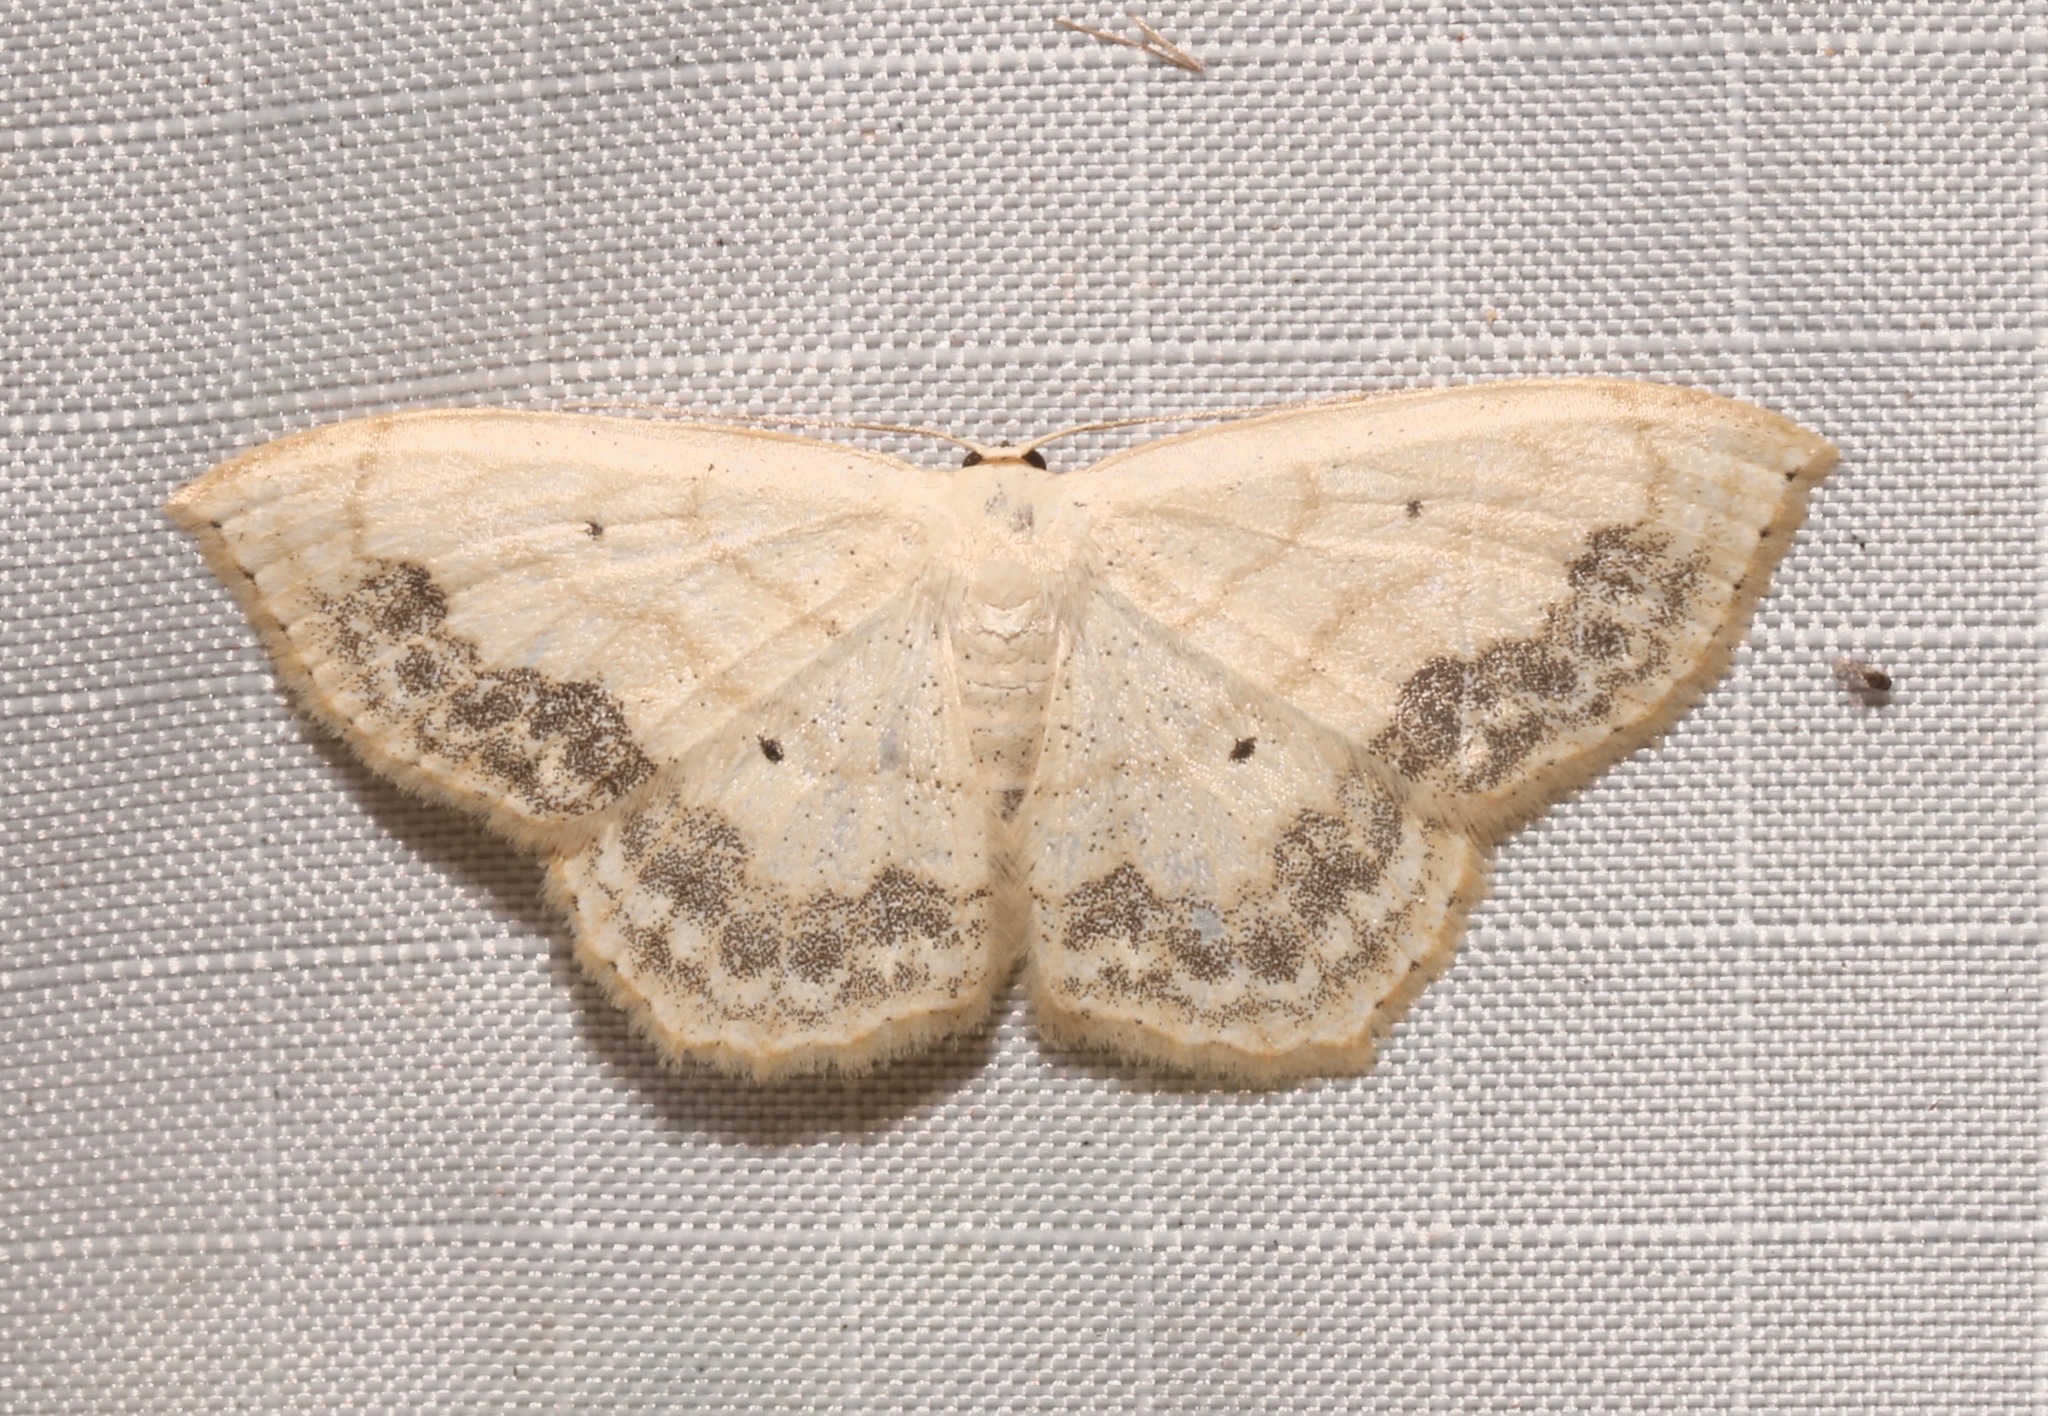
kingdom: Animalia
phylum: Arthropoda
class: Insecta
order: Lepidoptera
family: Geometridae
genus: Scopula
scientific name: Scopula limboundata
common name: Large lace border
